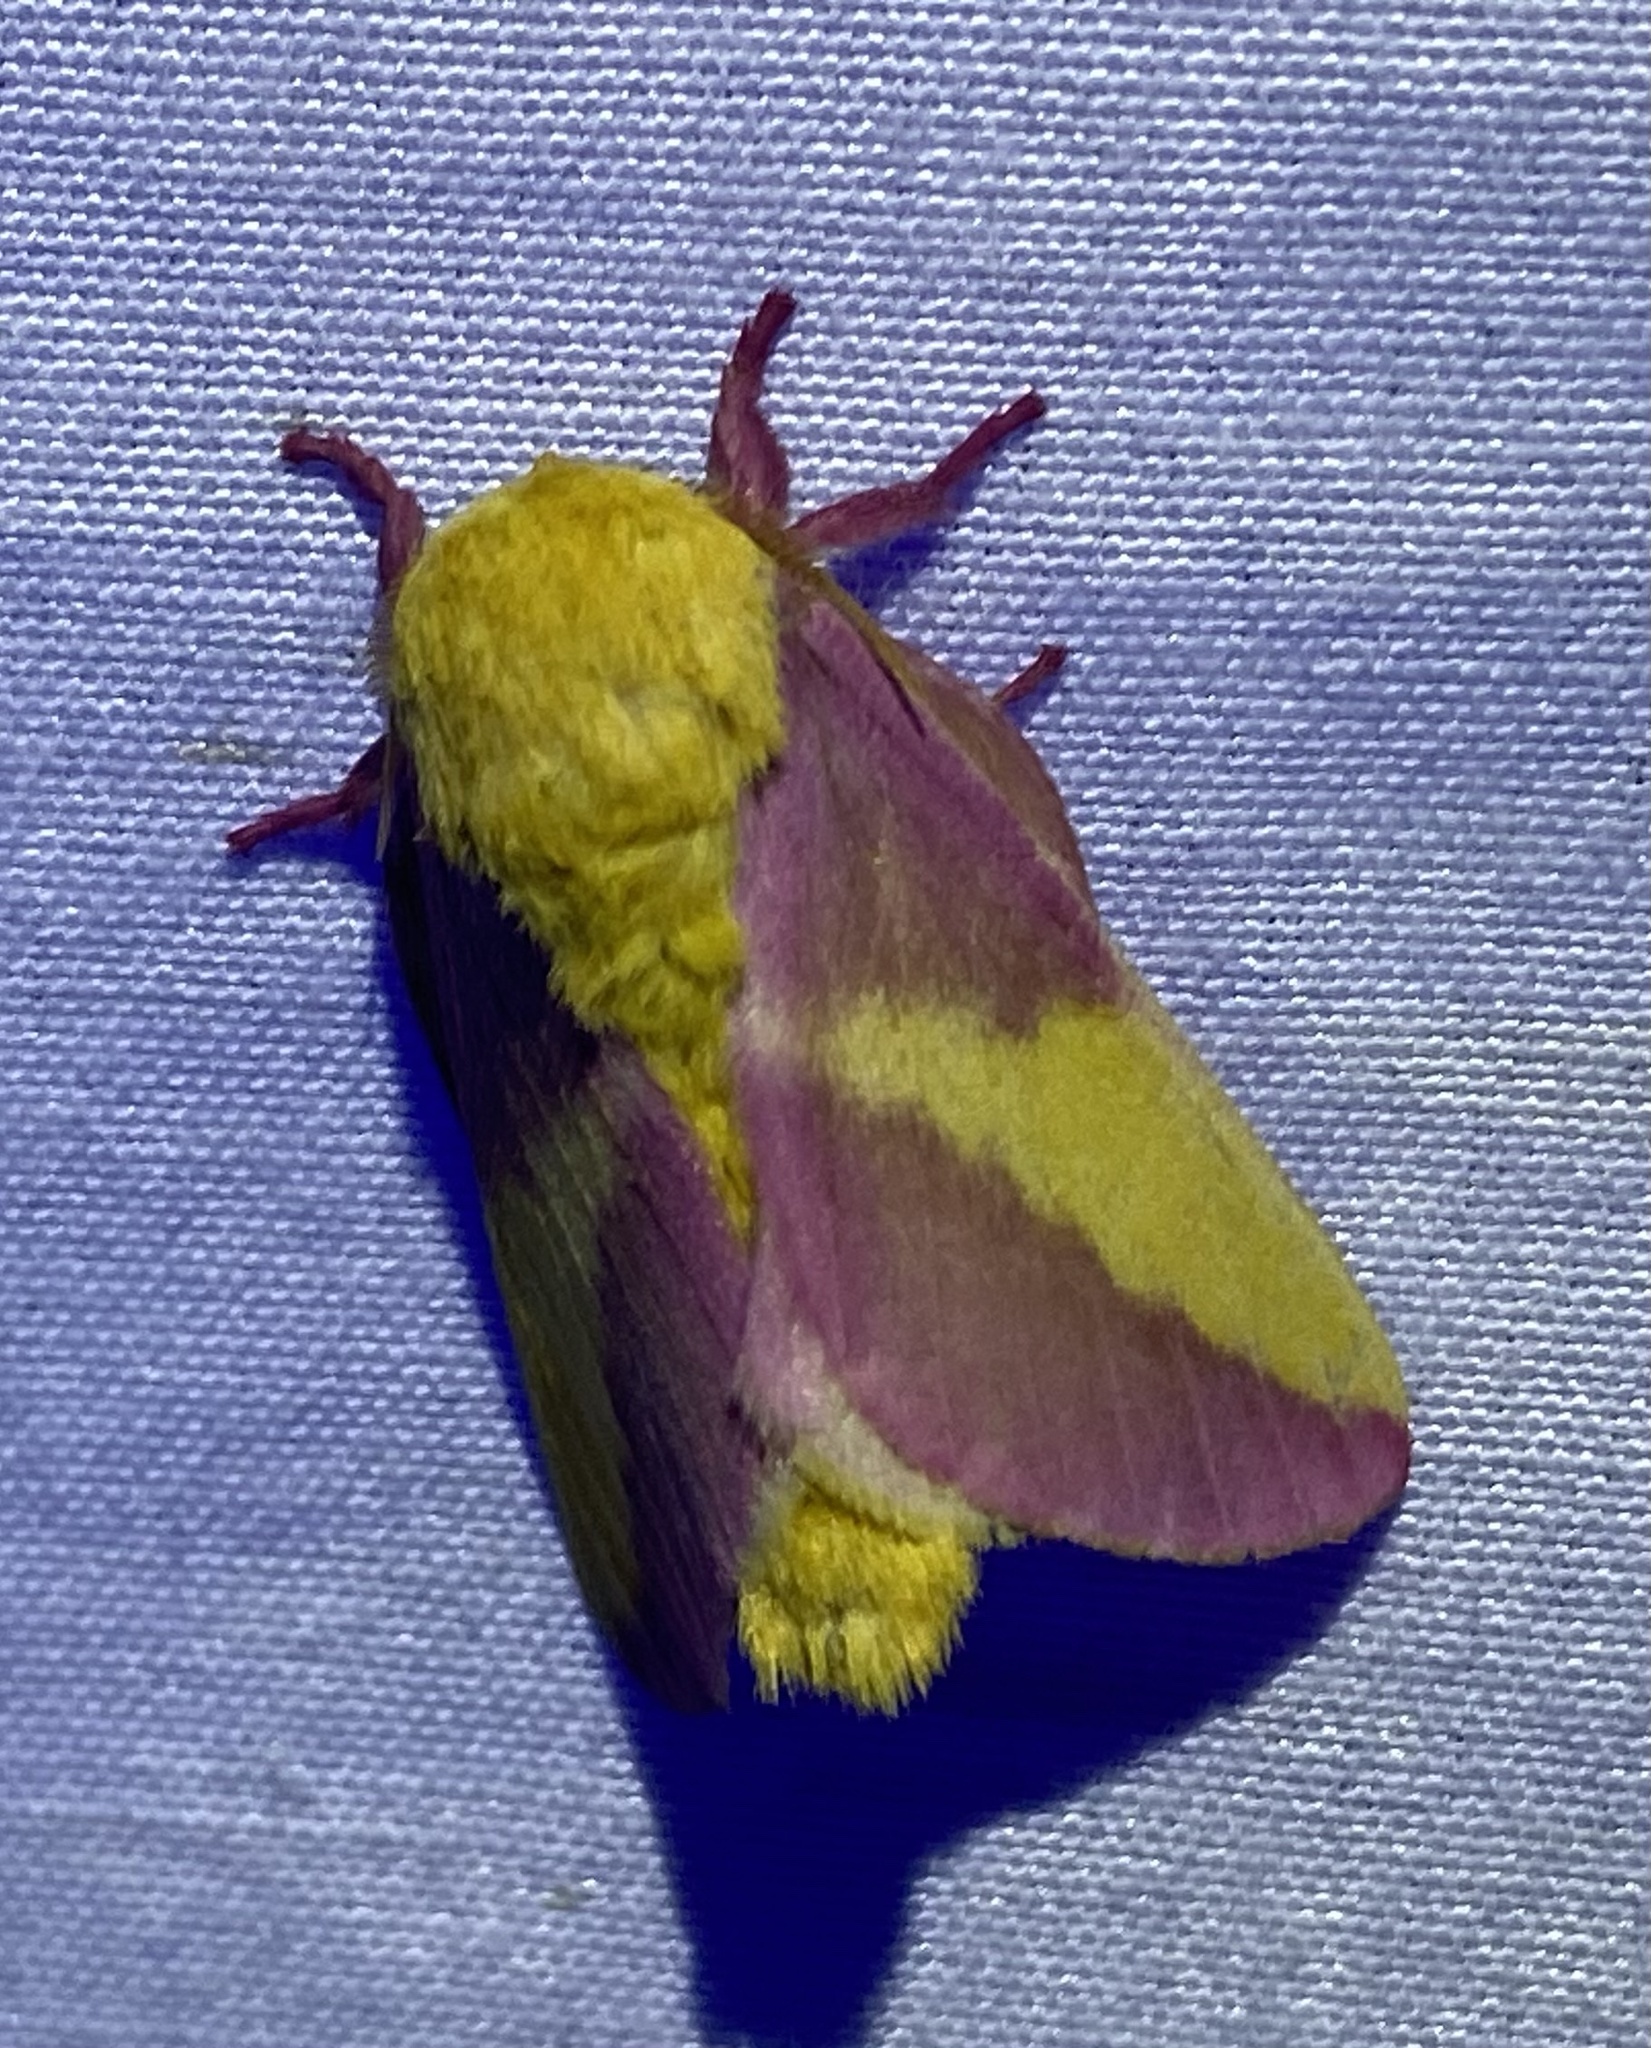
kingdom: Animalia
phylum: Arthropoda
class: Insecta
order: Lepidoptera
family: Saturniidae
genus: Dryocampa
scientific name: Dryocampa rubicunda
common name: Rosy maple moth
